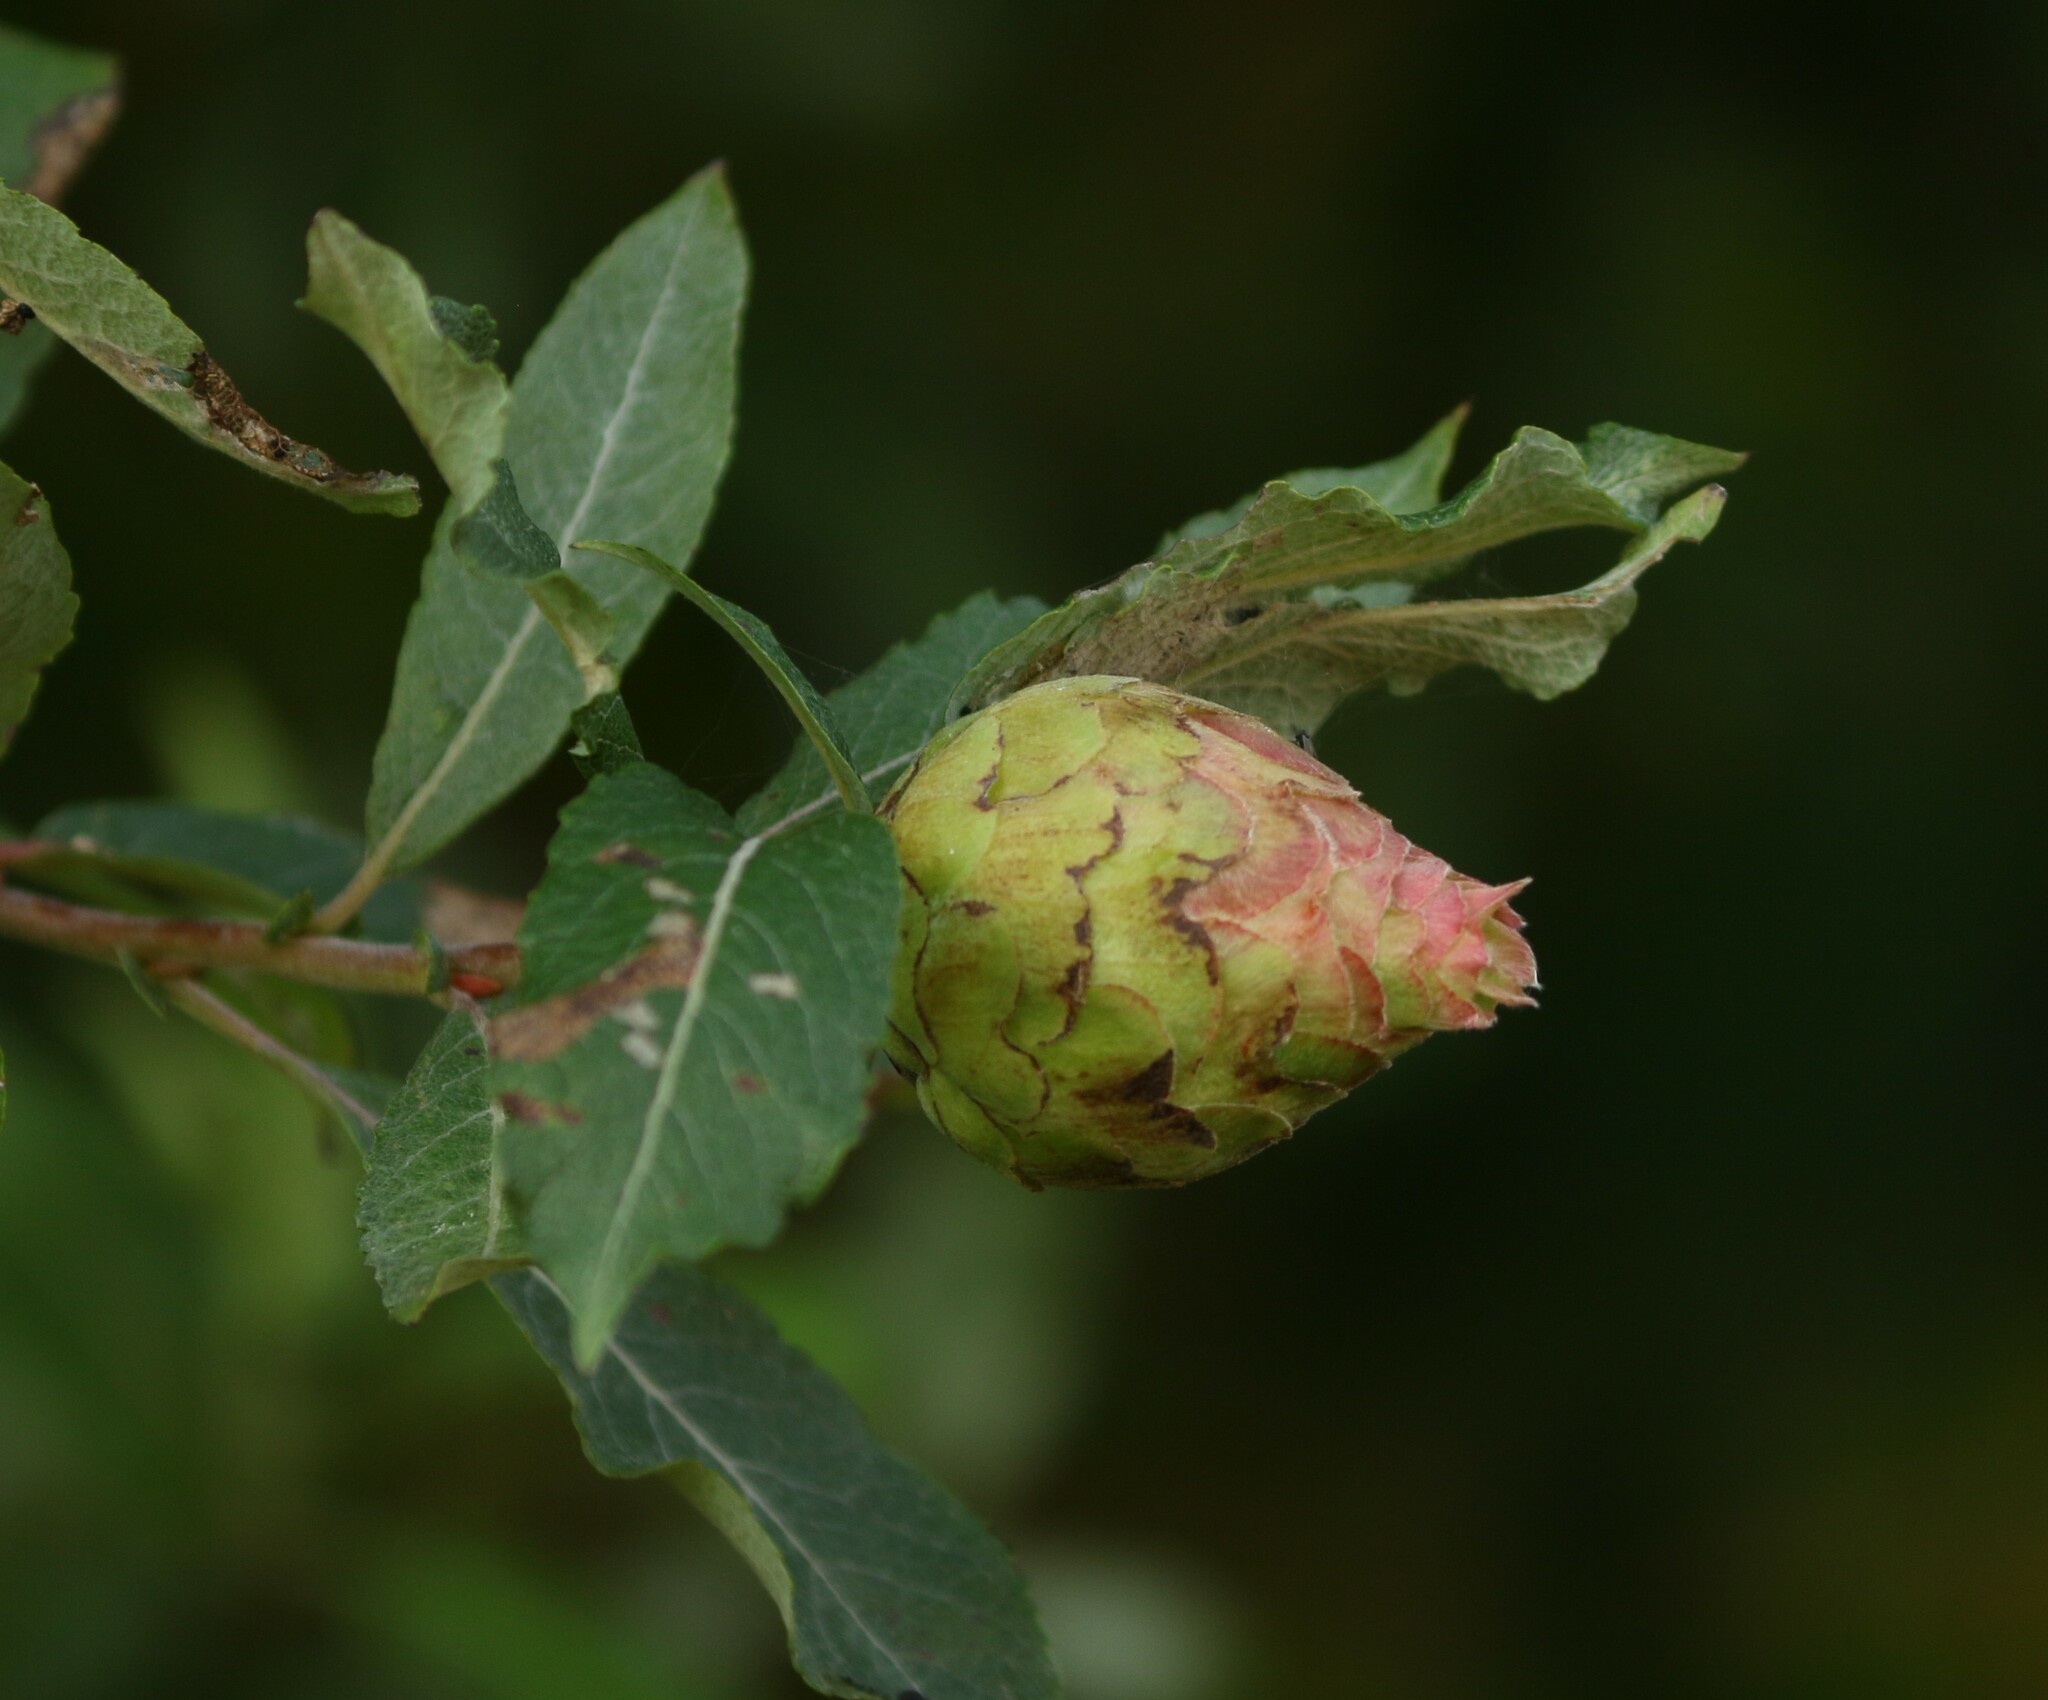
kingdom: Animalia
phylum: Arthropoda
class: Insecta
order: Diptera
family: Cecidomyiidae
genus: Rabdophaga
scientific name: Rabdophaga strobiloides
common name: Willow pinecone gall midge
